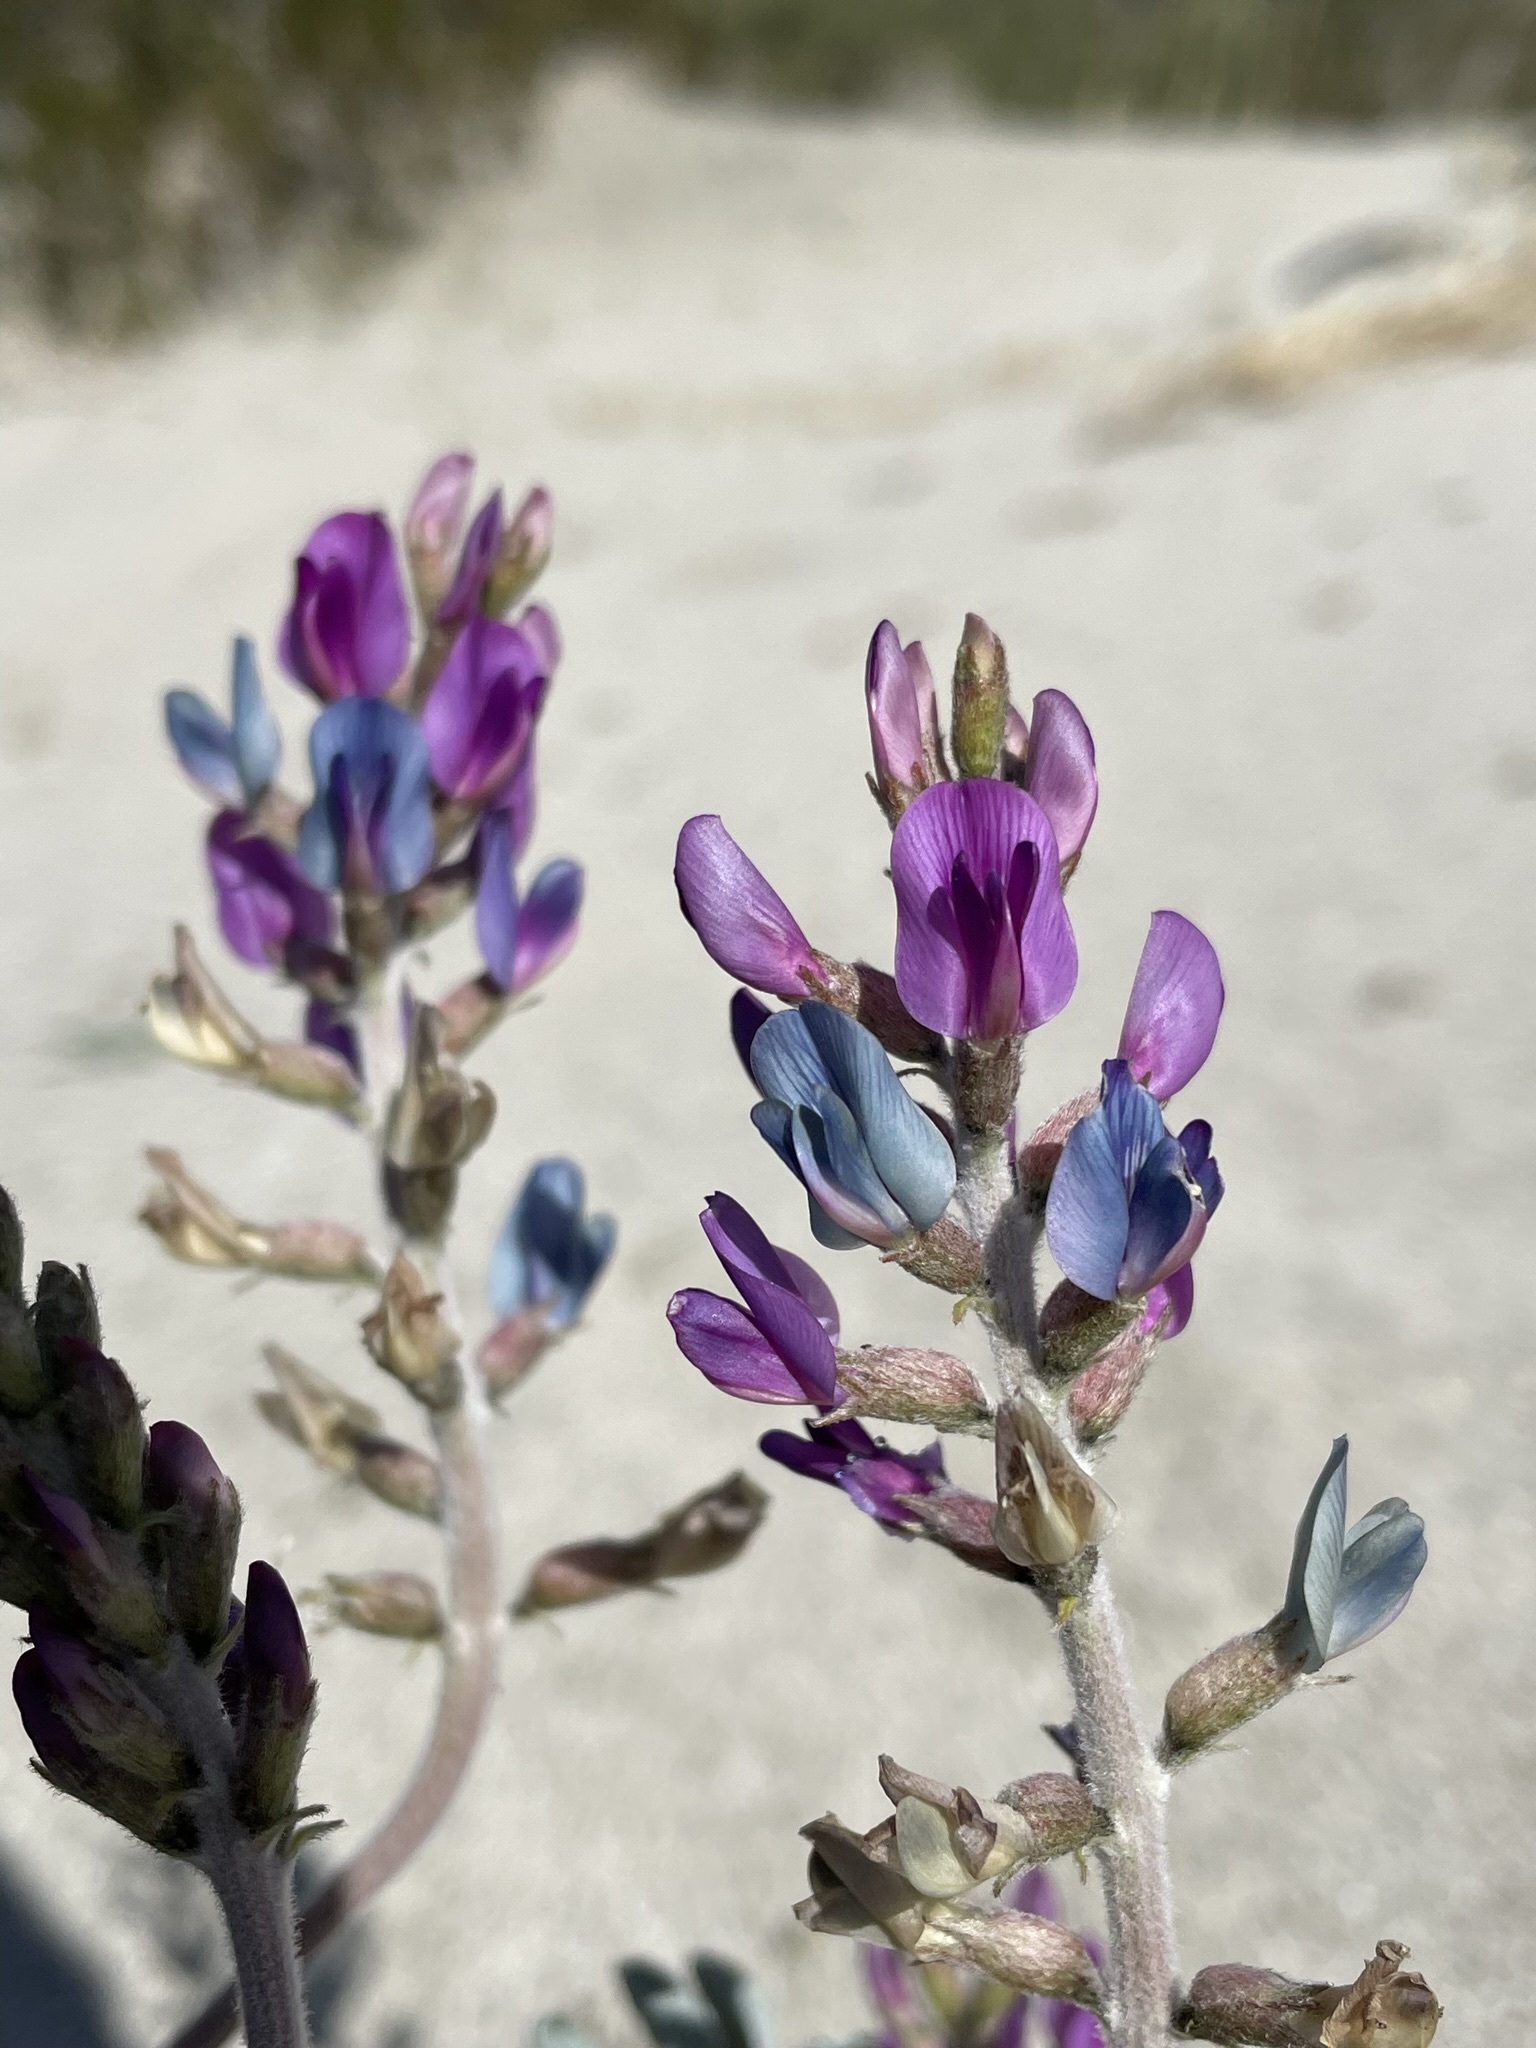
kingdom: Plantae
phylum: Tracheophyta
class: Magnoliopsida
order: Fabales
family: Fabaceae
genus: Astragalus
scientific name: Astragalus lentiginosus
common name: Freckled milkvetch
